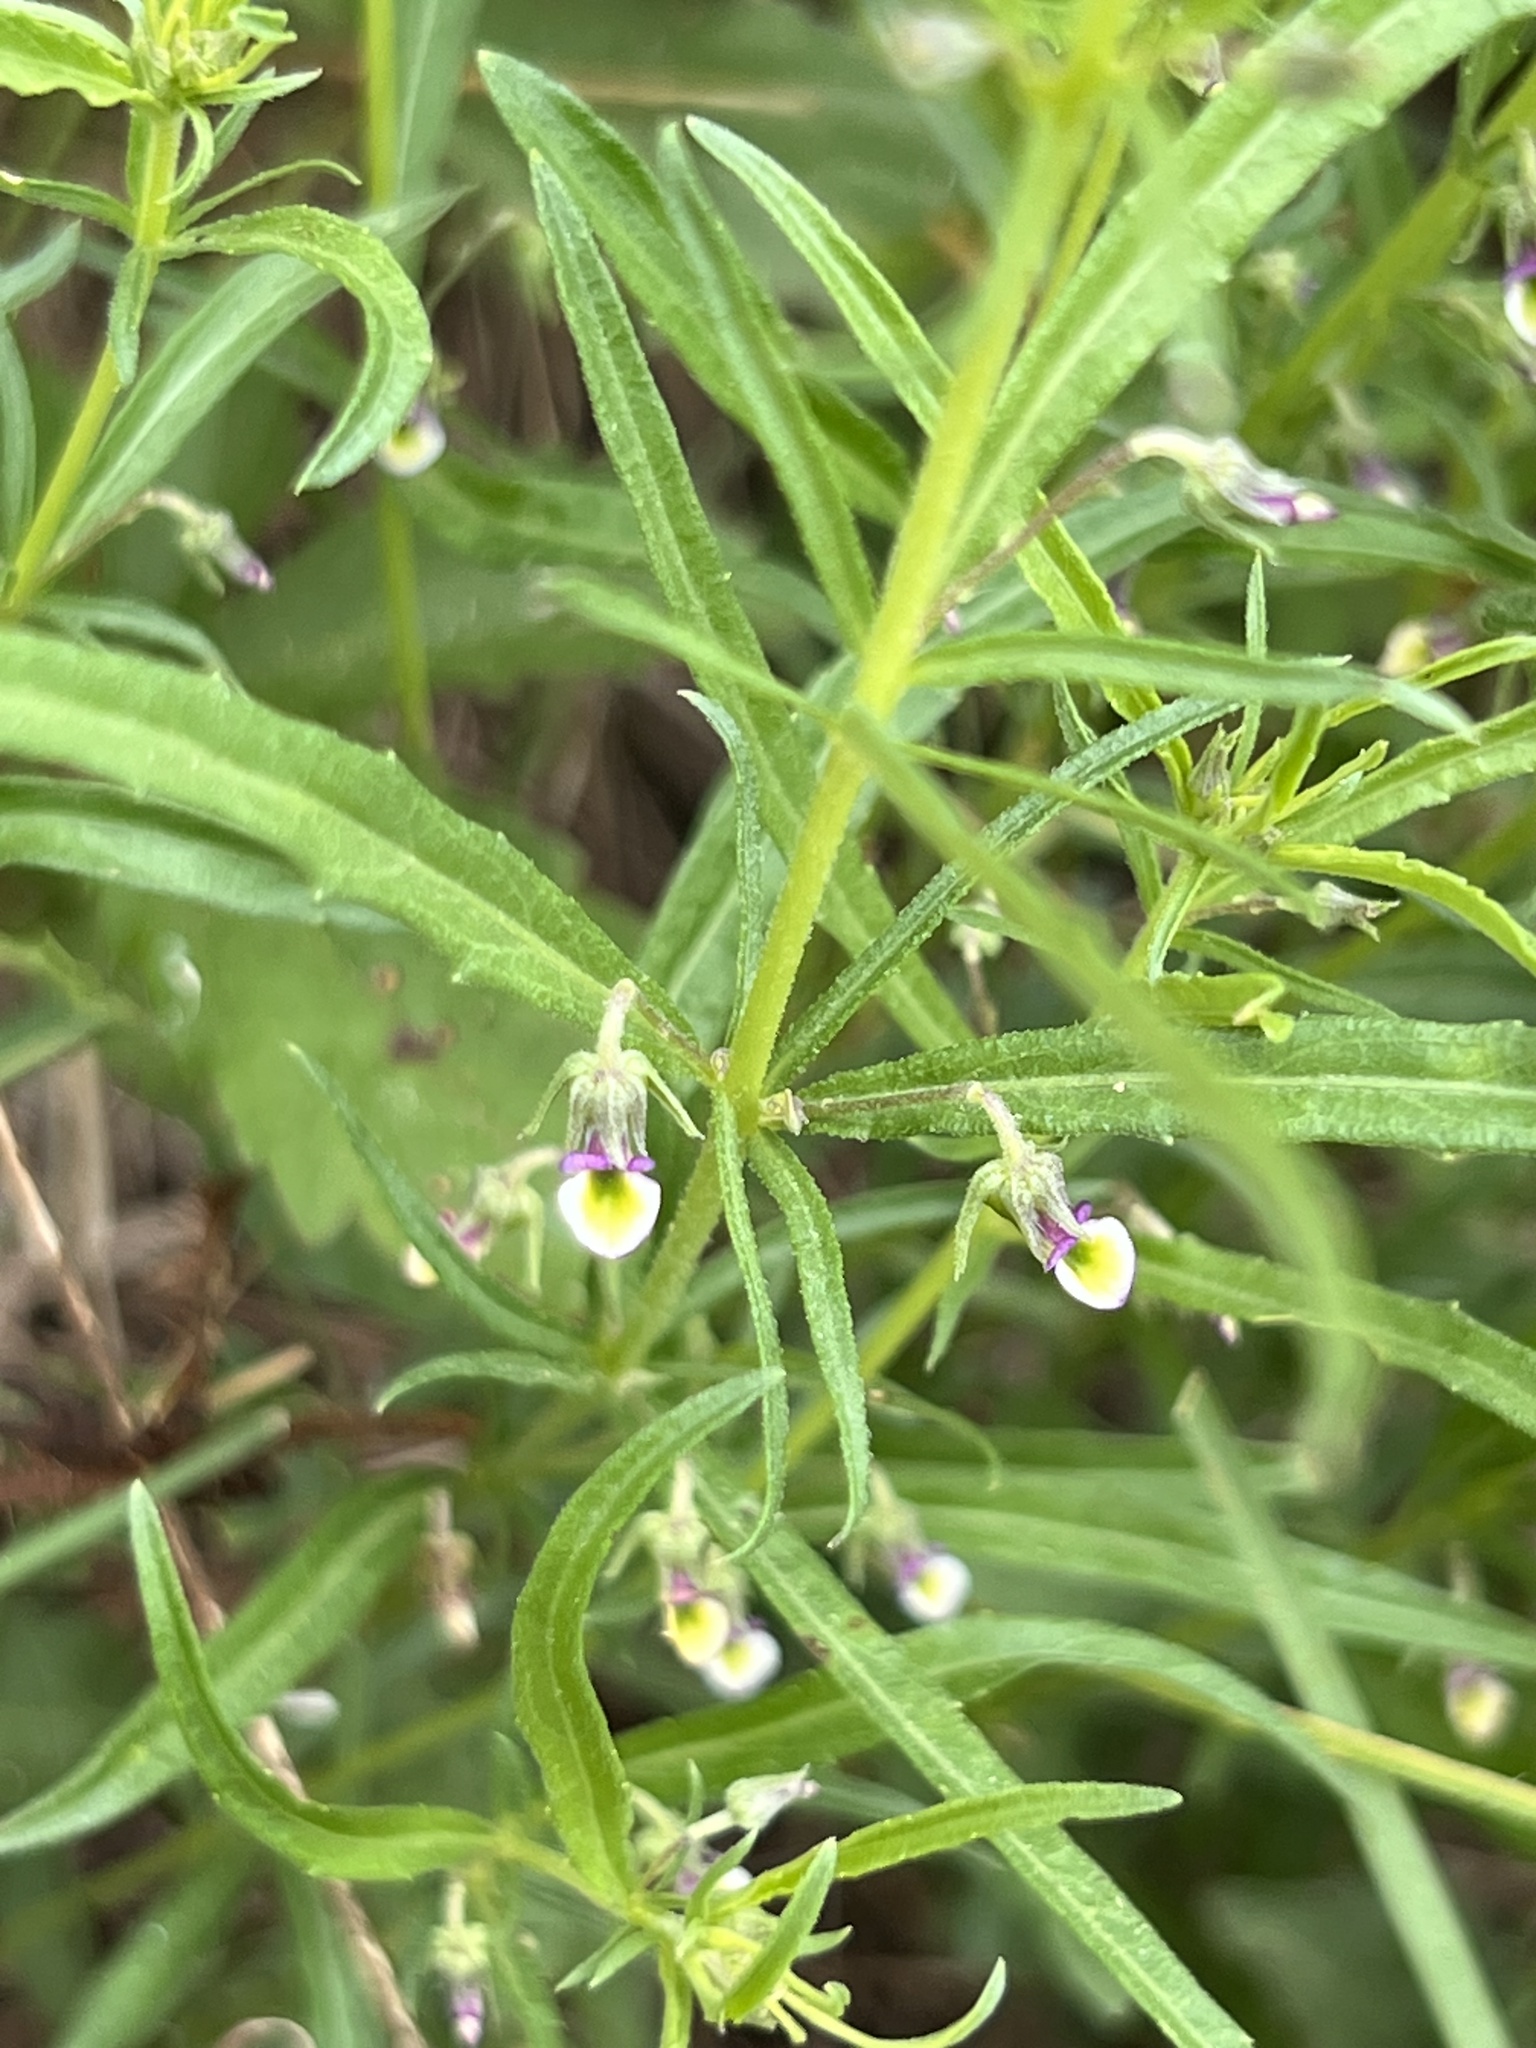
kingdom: Plantae
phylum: Tracheophyta
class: Magnoliopsida
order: Malpighiales
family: Violaceae
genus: Pombalia
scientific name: Pombalia verticillata
